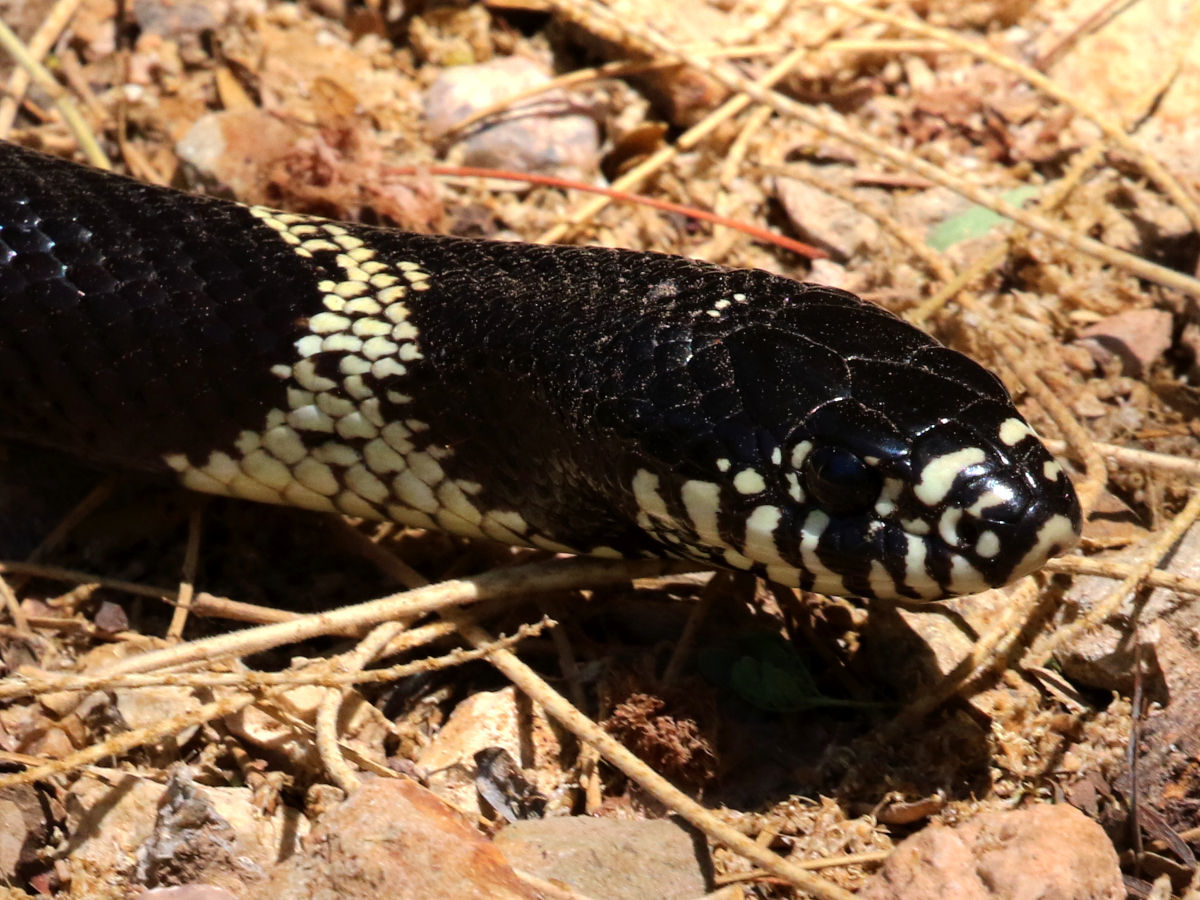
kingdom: Animalia
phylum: Chordata
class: Squamata
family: Colubridae
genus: Lampropeltis
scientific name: Lampropeltis californiae
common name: California kingsnake
